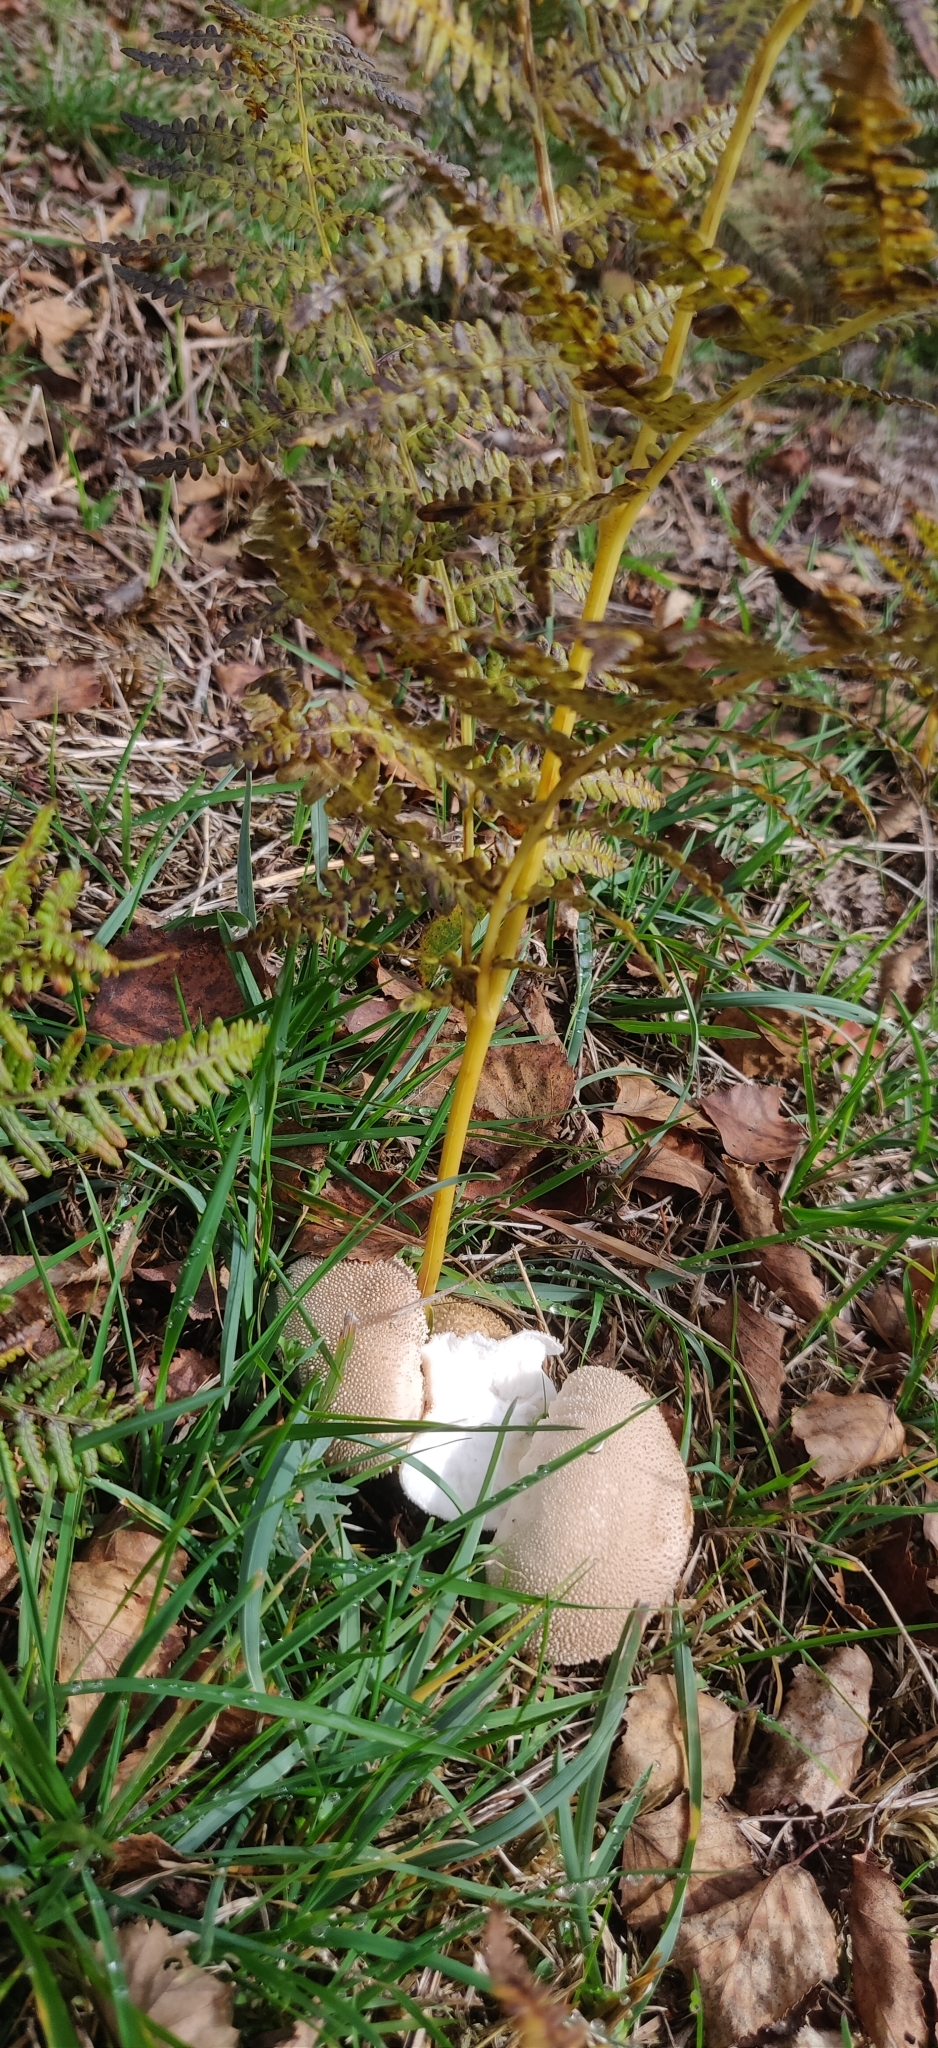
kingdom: Fungi
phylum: Basidiomycota
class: Agaricomycetes
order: Agaricales
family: Lycoperdaceae
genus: Lycoperdon
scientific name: Lycoperdon perlatum
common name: Common puffball
